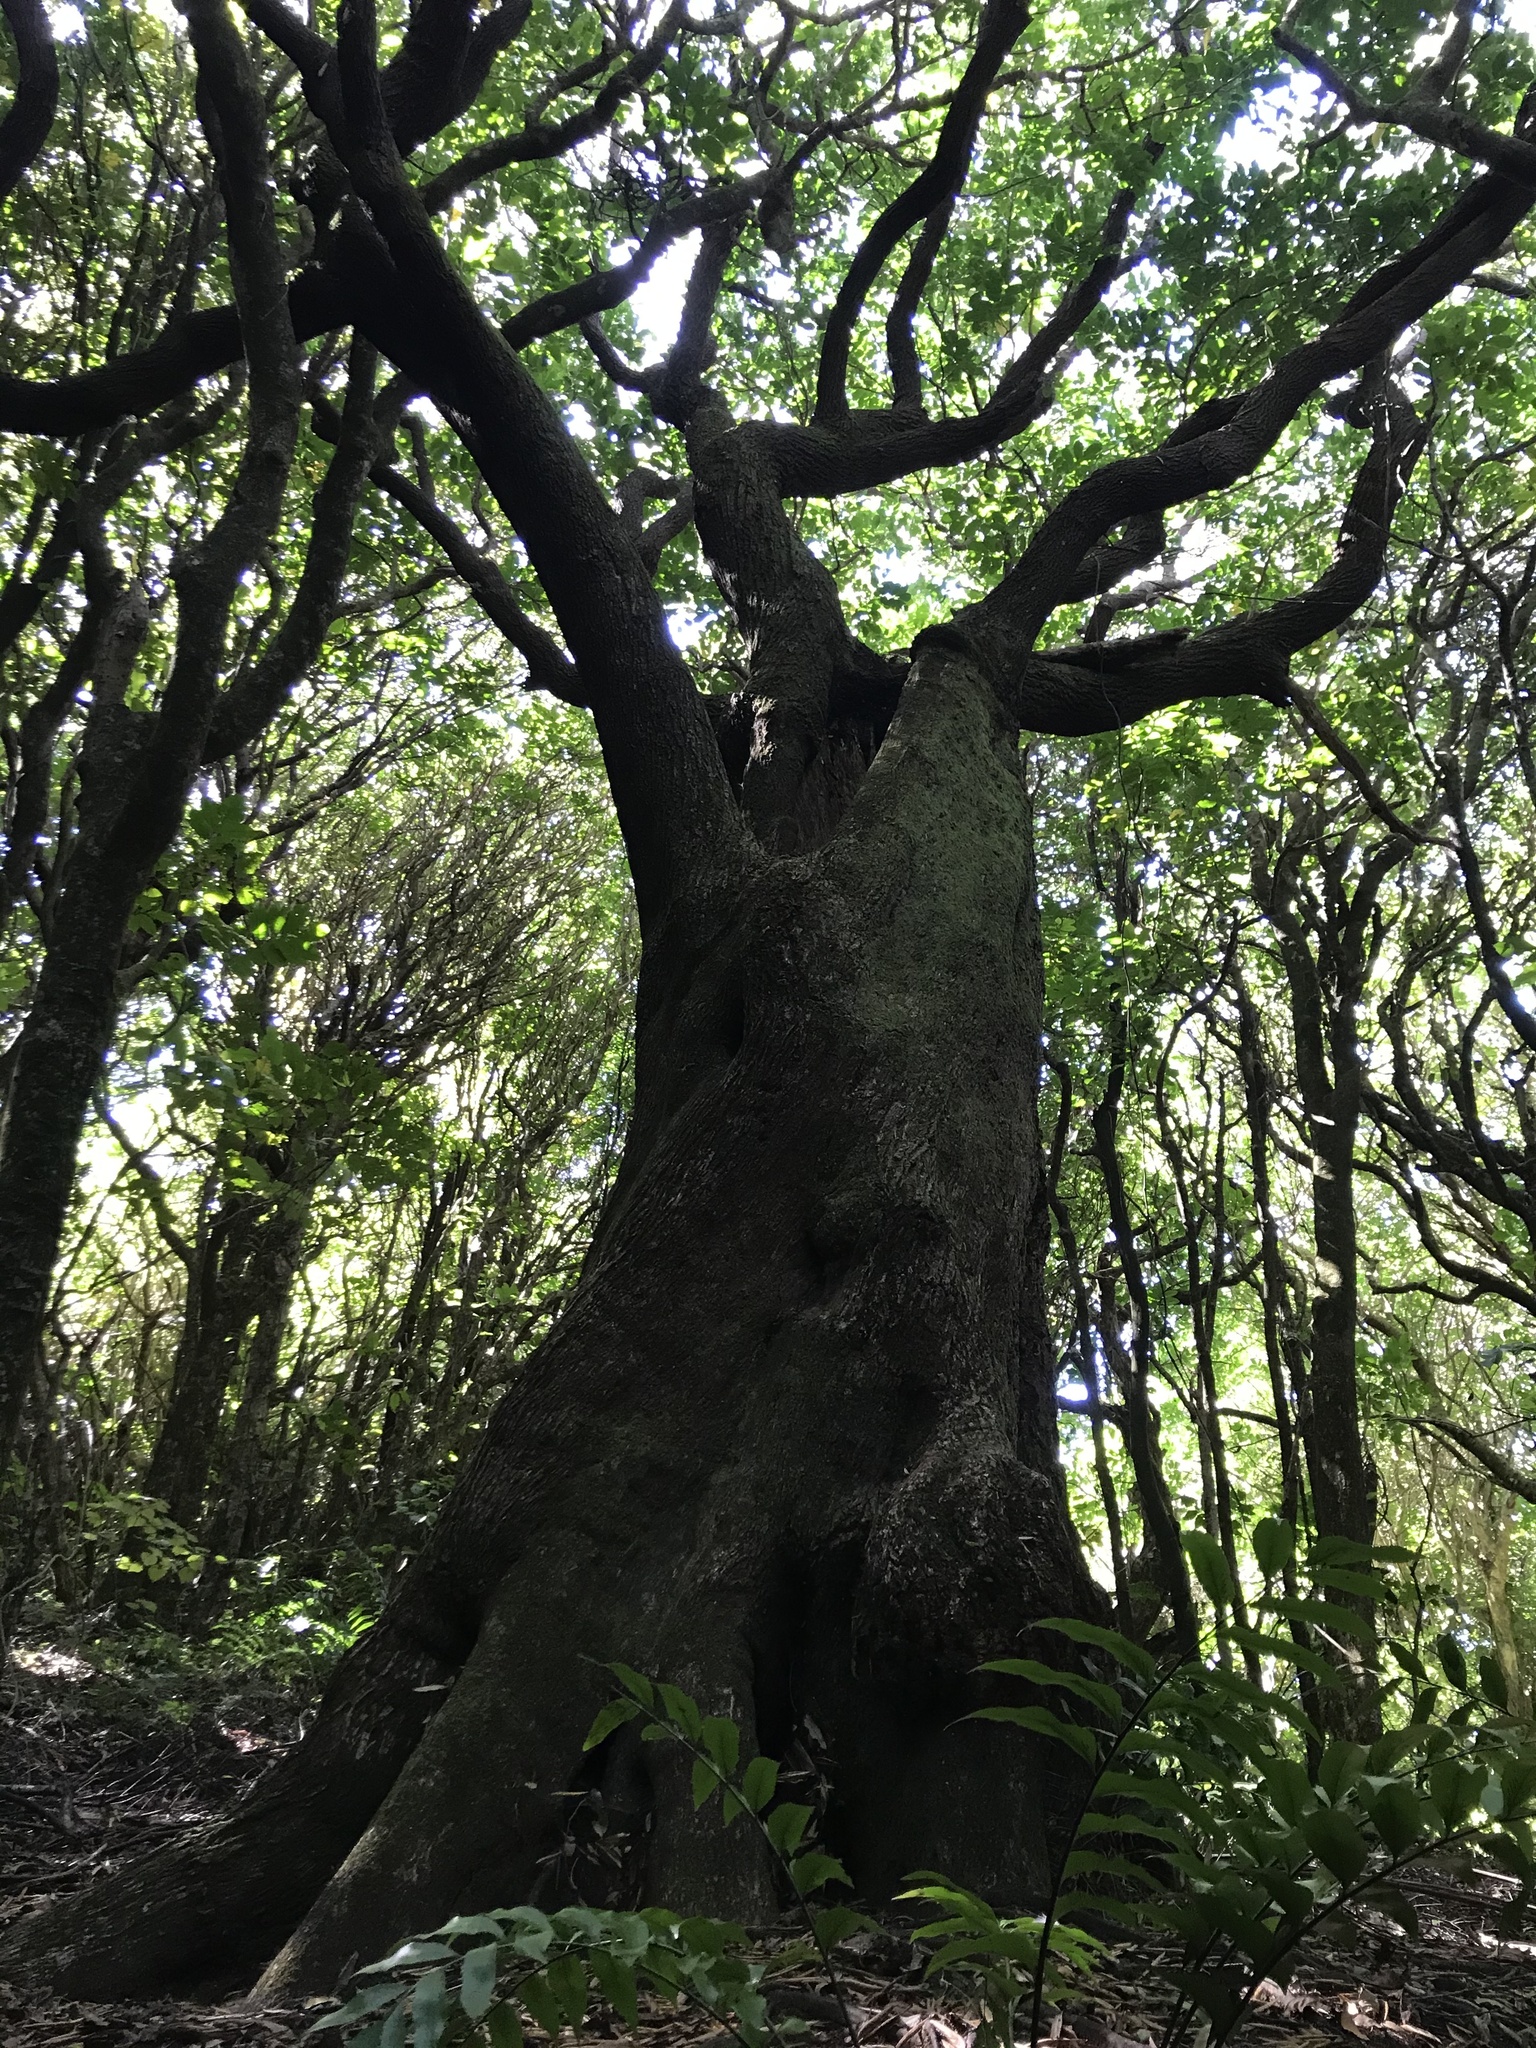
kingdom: Plantae
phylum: Tracheophyta
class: Magnoliopsida
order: Oxalidales
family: Elaeocarpaceae
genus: Elaeocarpus
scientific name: Elaeocarpus dentatus
